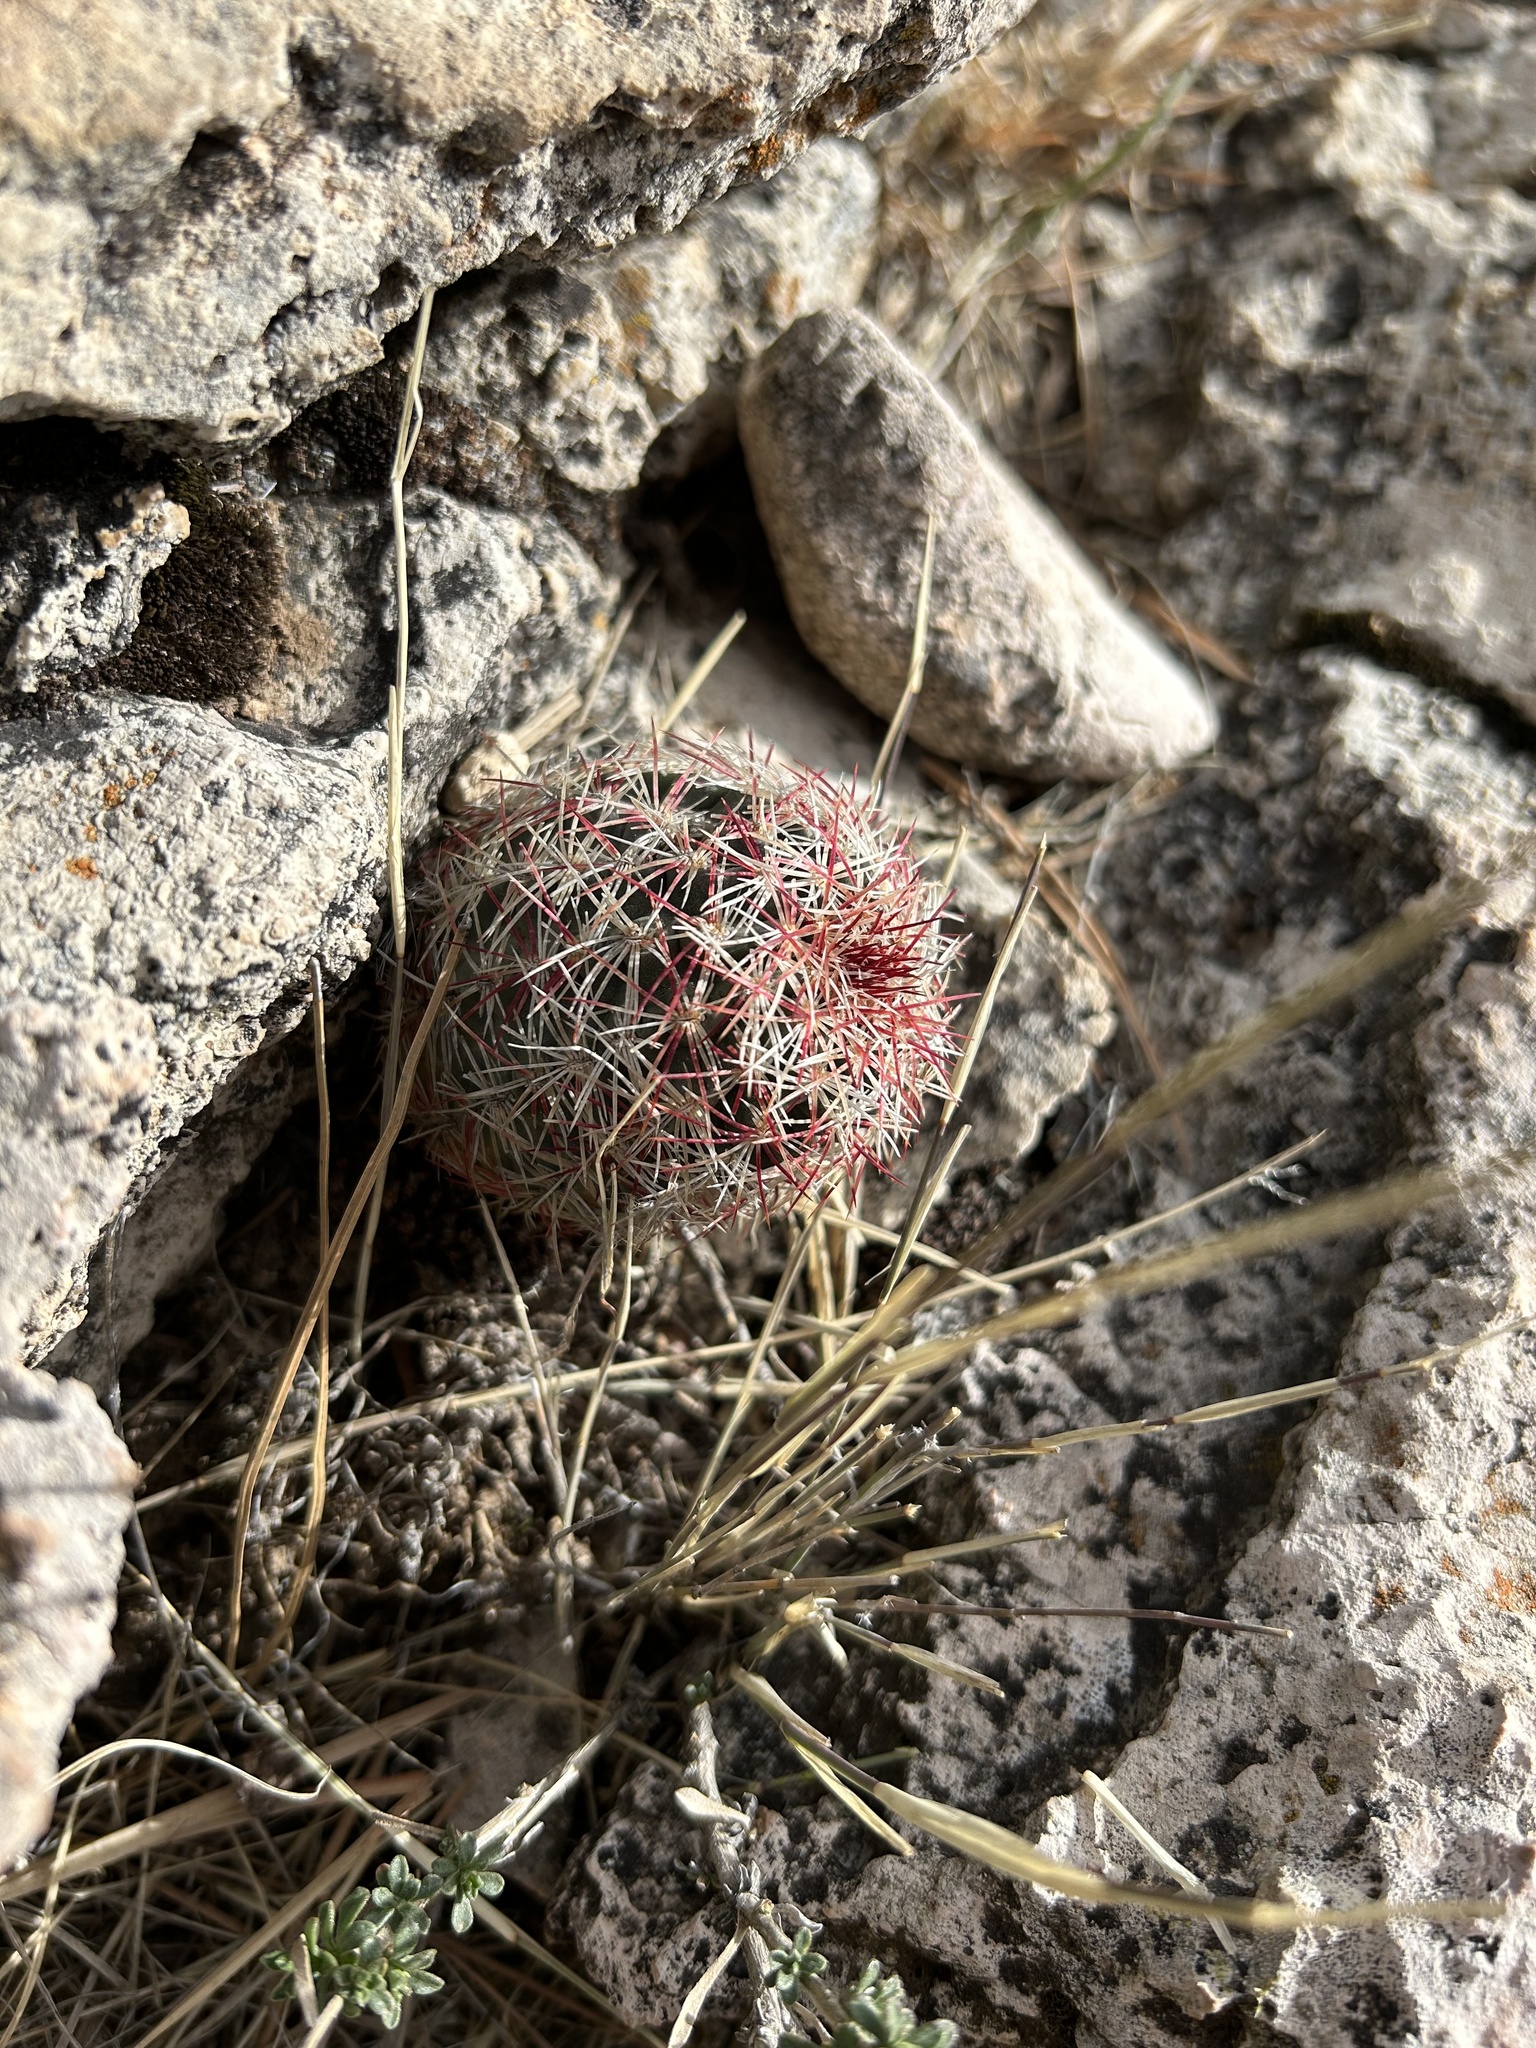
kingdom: Plantae
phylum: Tracheophyta
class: Magnoliopsida
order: Caryophyllales
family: Cactaceae
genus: Echinocereus
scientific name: Echinocereus viridiflorus
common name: Nylon hedgehog cactus
